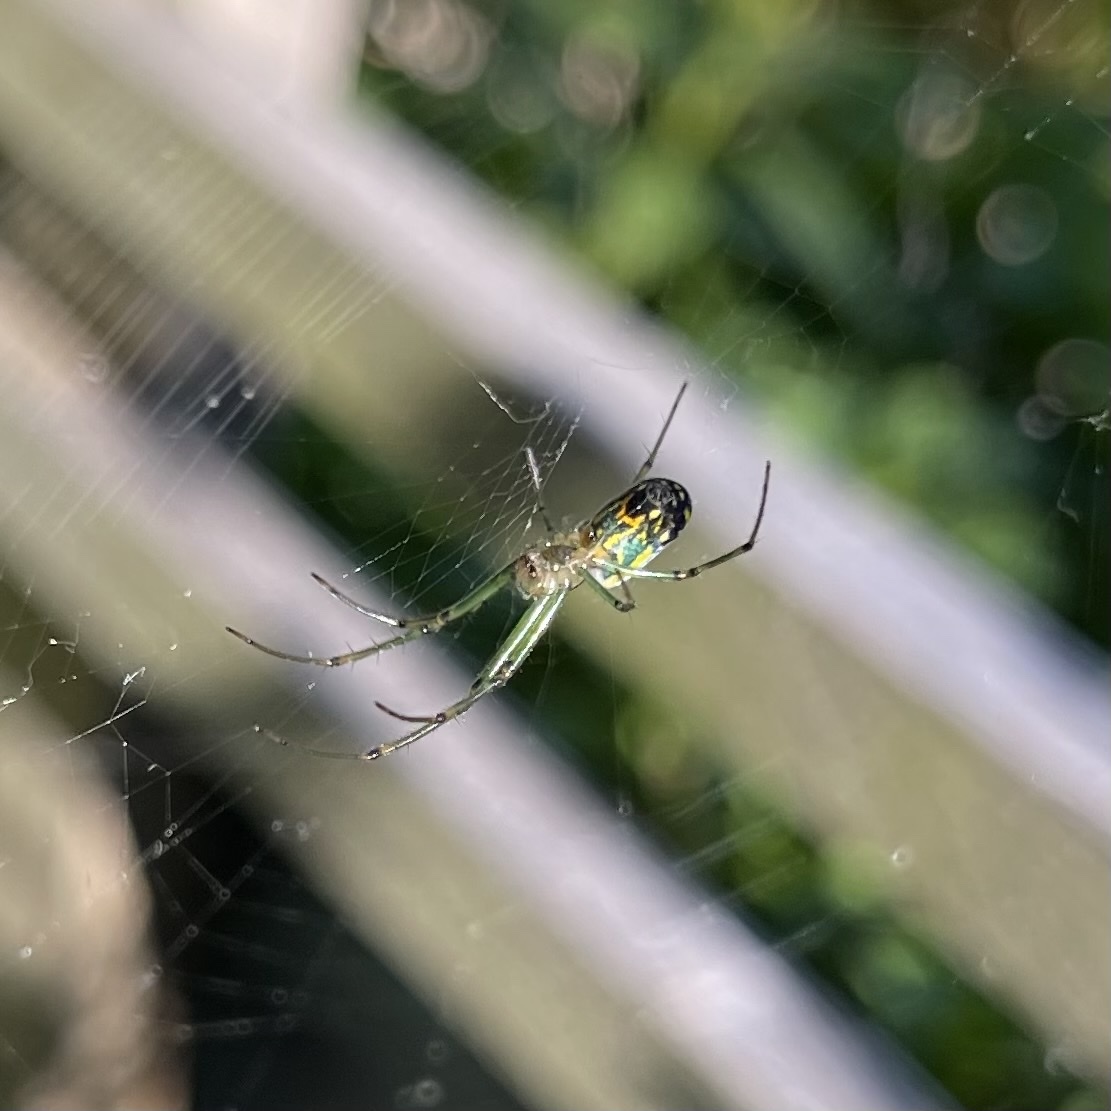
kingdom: Animalia
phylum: Arthropoda
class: Arachnida
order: Araneae
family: Tetragnathidae
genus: Leucauge
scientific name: Leucauge venusta
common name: Longjawed orb weavers
